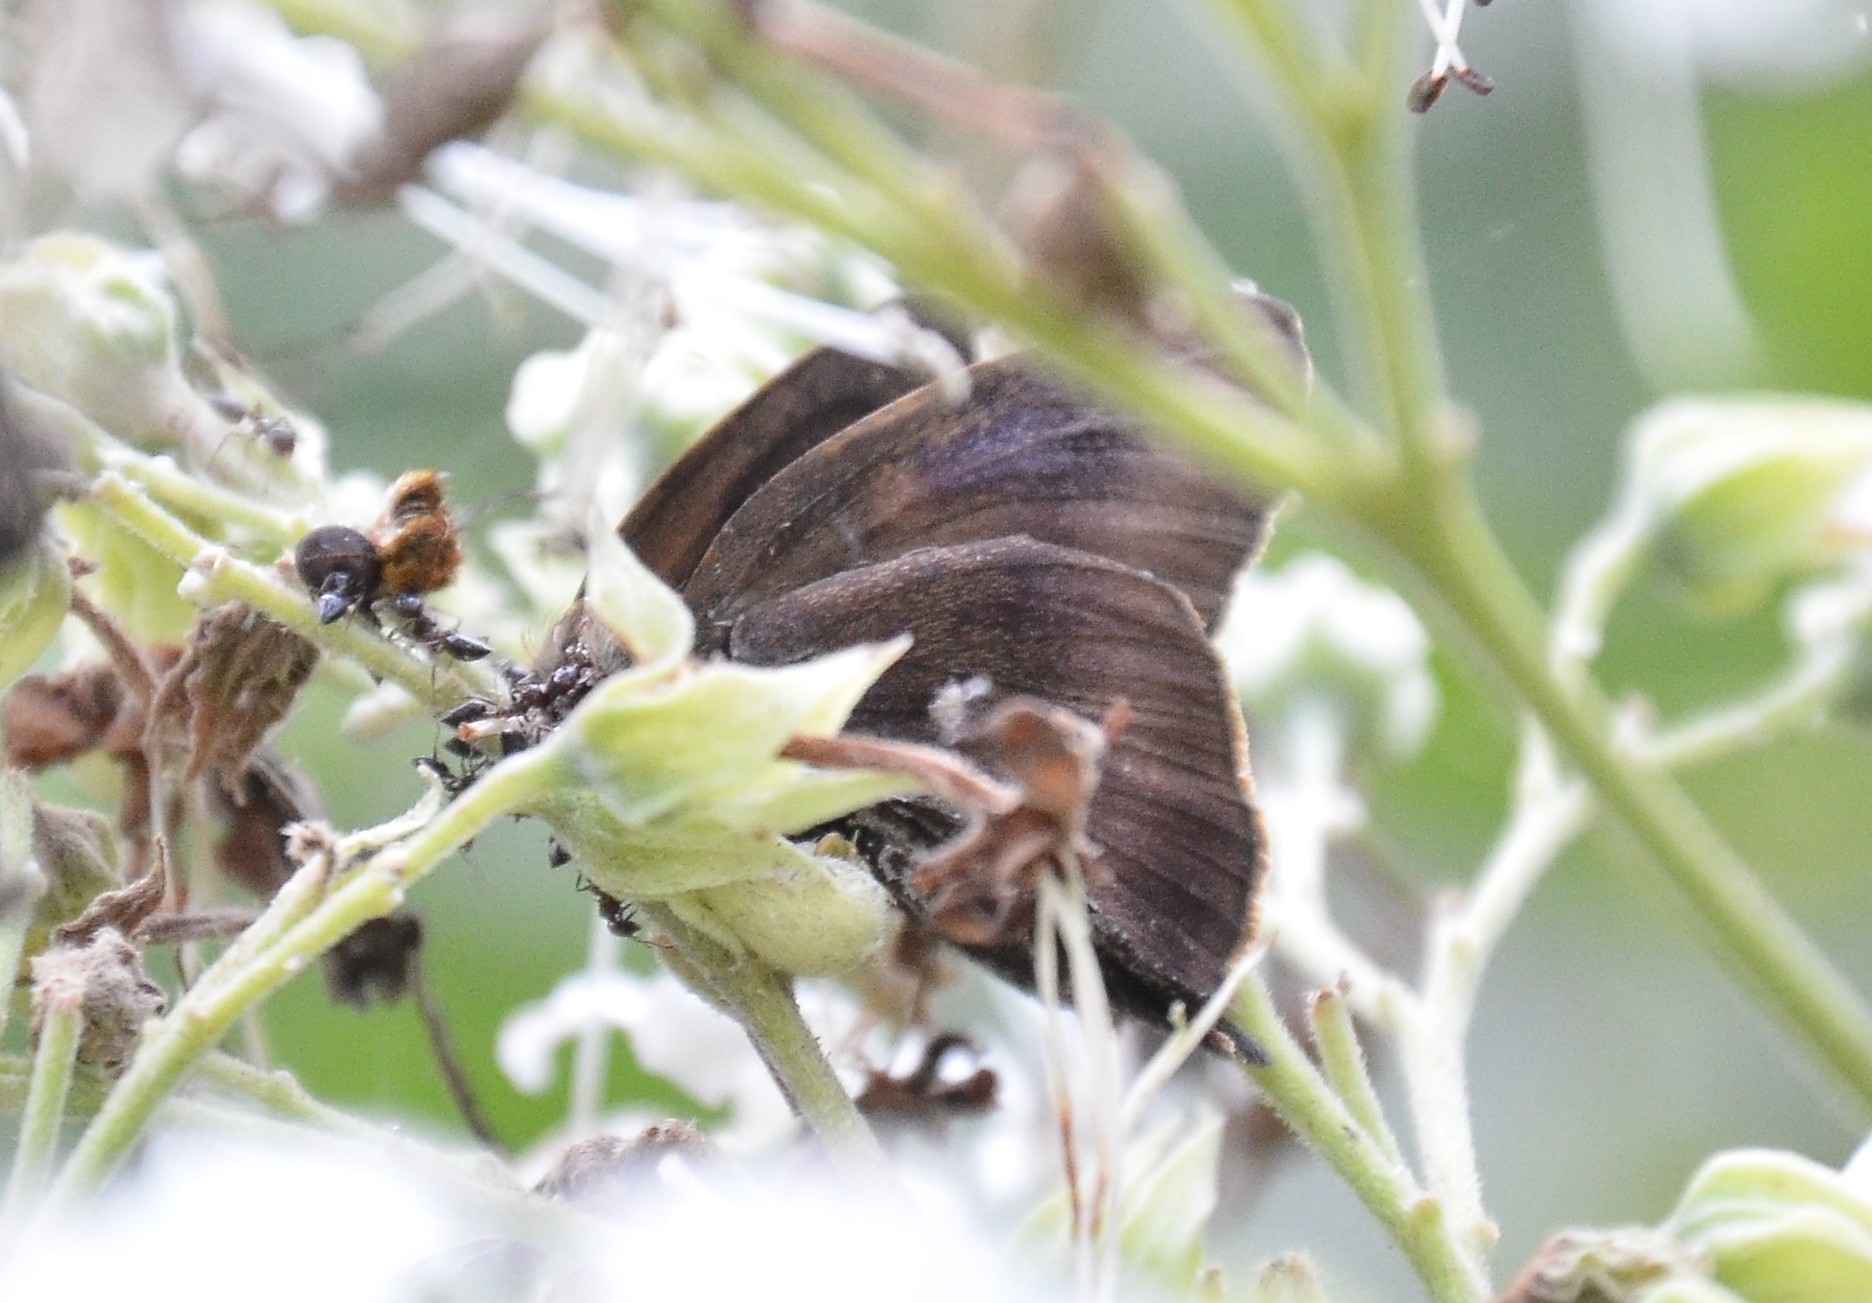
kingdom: Animalia
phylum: Arthropoda
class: Insecta
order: Lepidoptera
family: Hesperiidae
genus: Hasora
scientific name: Hasora badra
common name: Common awl
